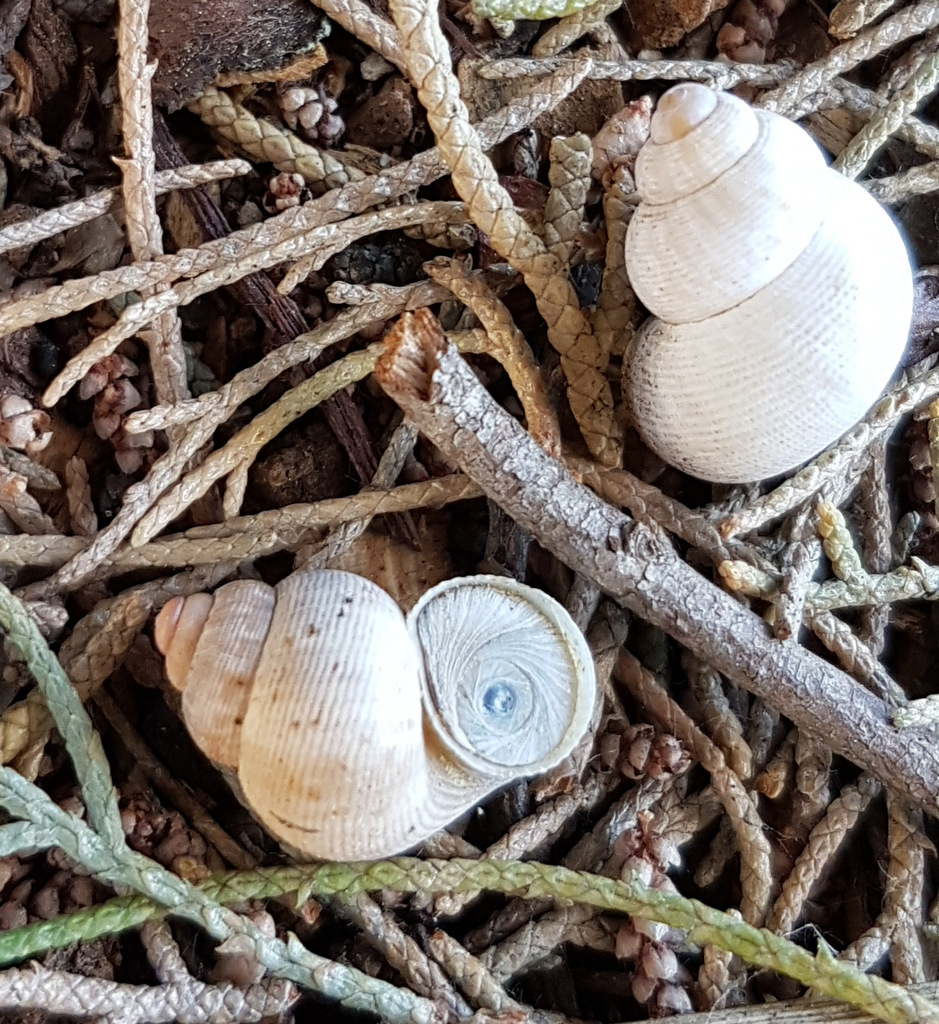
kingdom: Animalia
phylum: Mollusca
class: Gastropoda
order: Littorinimorpha
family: Pomatiidae
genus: Pomatias
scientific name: Pomatias elegans
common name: Red-mouthed snail
